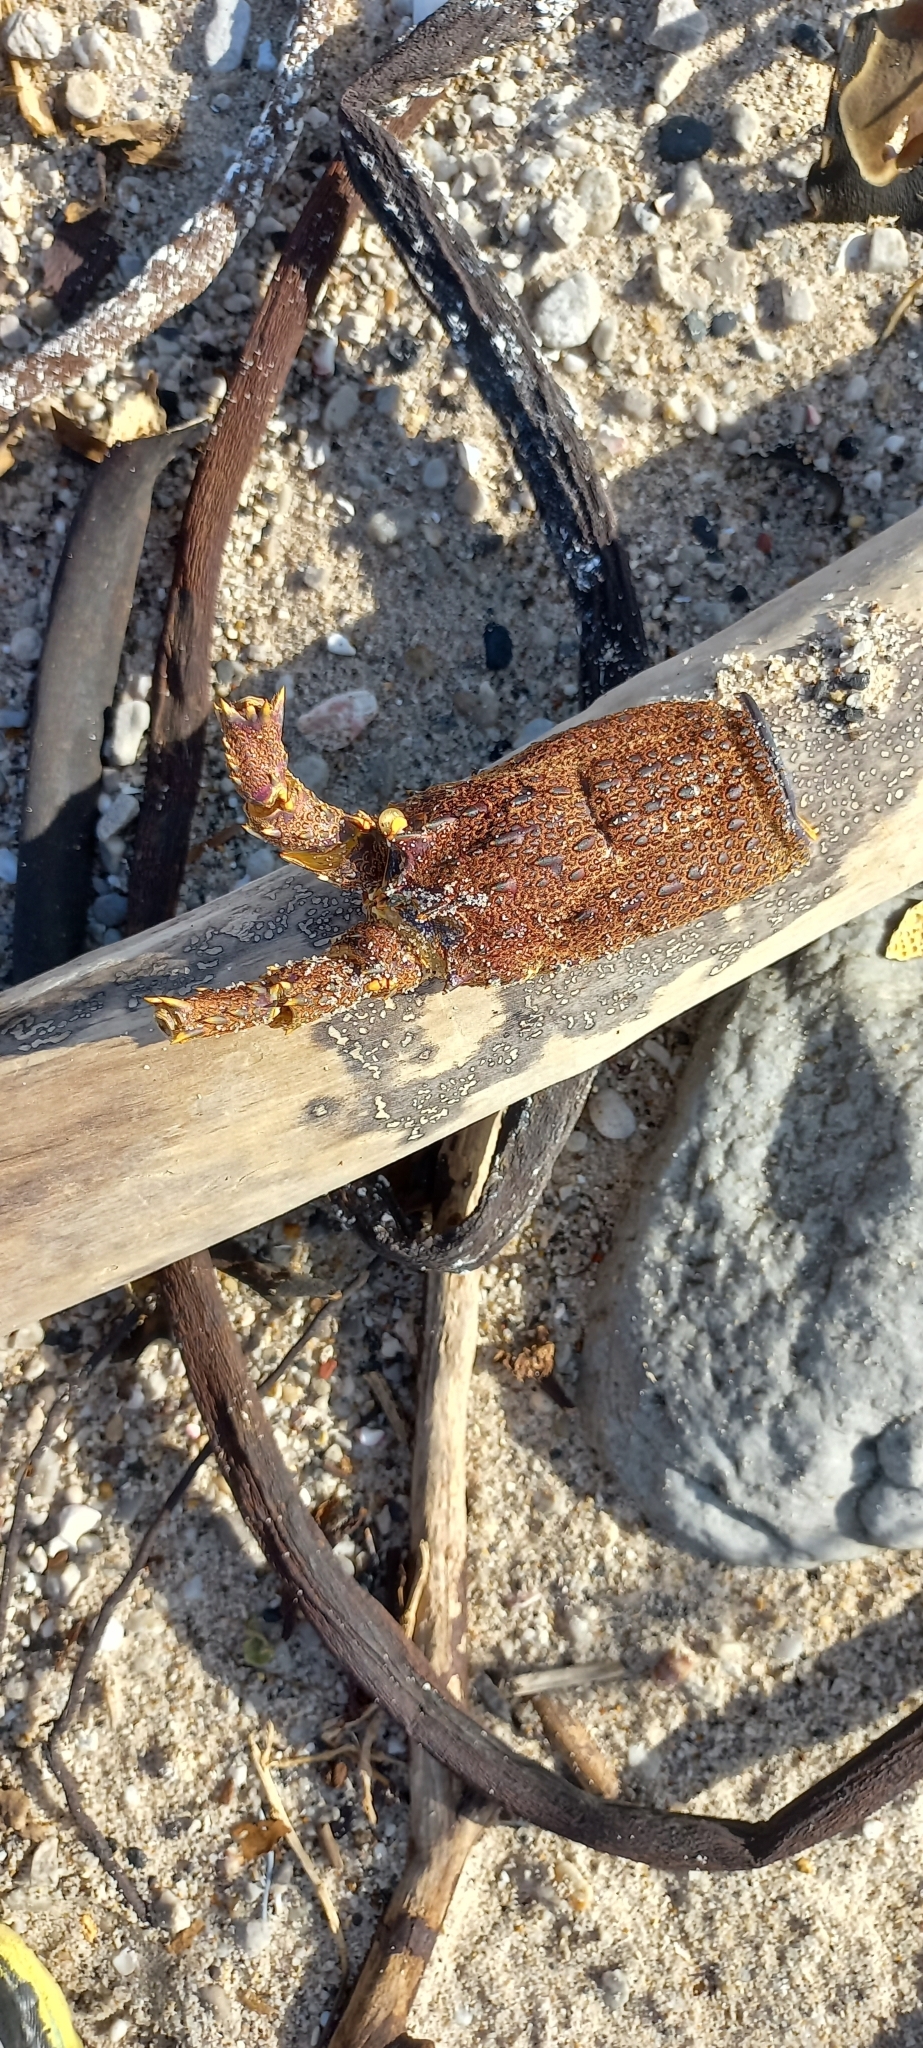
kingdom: Animalia
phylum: Arthropoda
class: Malacostraca
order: Decapoda
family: Palinuridae
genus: Jasus
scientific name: Jasus lalandii
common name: Cape rock lobster
